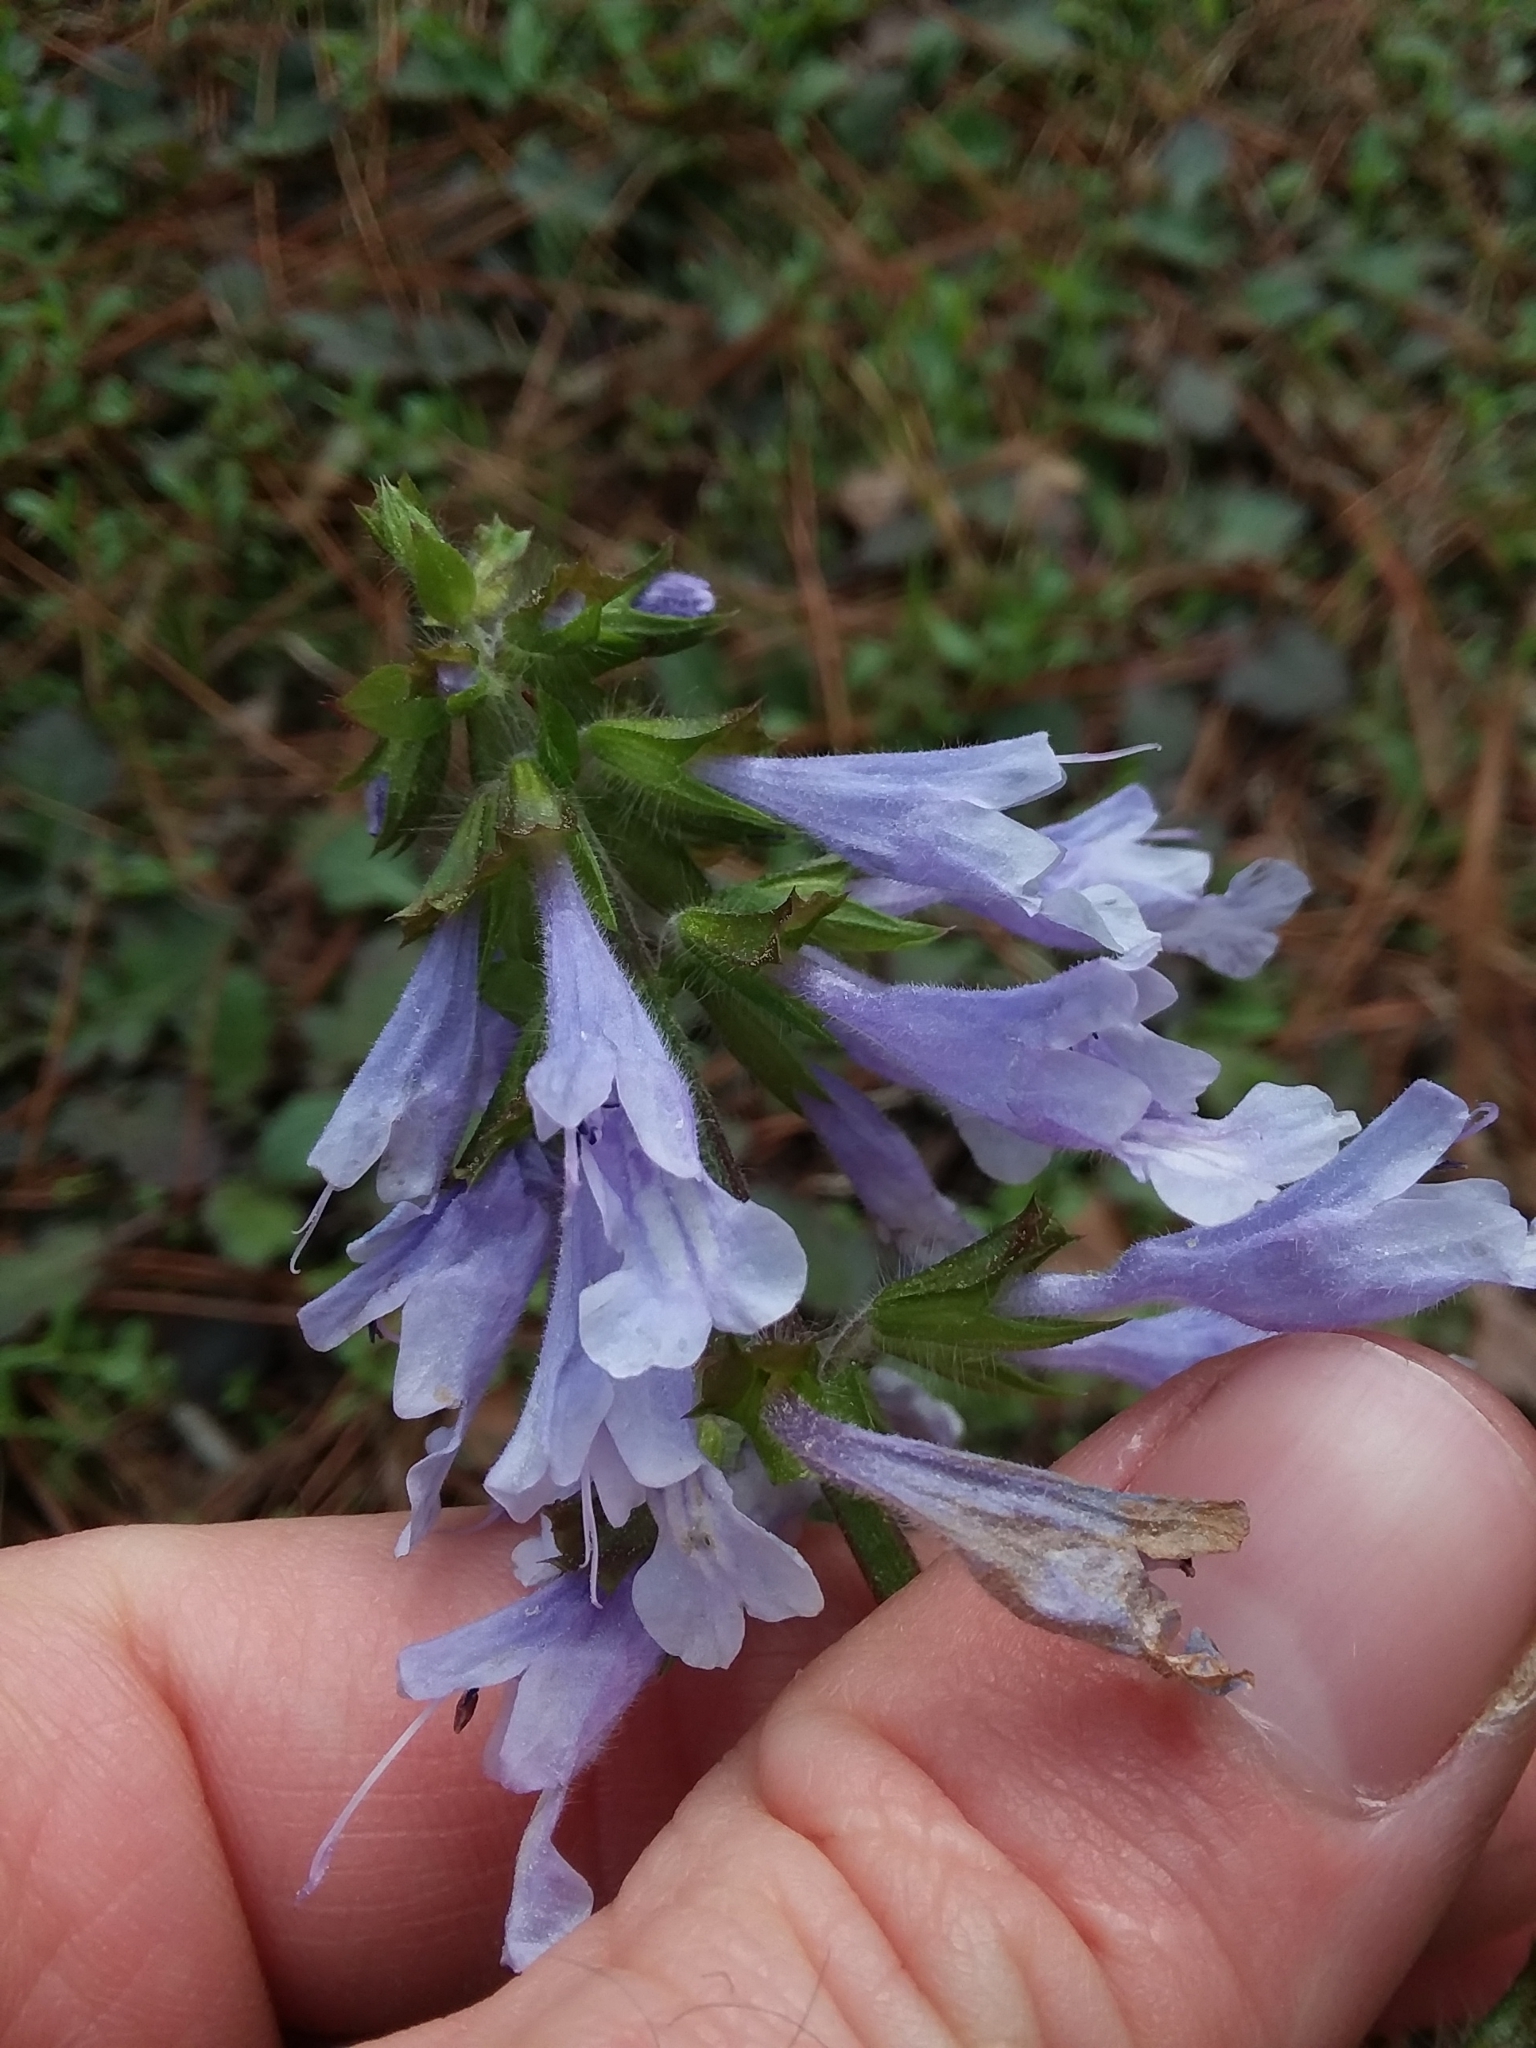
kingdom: Plantae
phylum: Tracheophyta
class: Magnoliopsida
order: Lamiales
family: Lamiaceae
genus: Salvia
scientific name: Salvia lyrata
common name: Cancerweed
